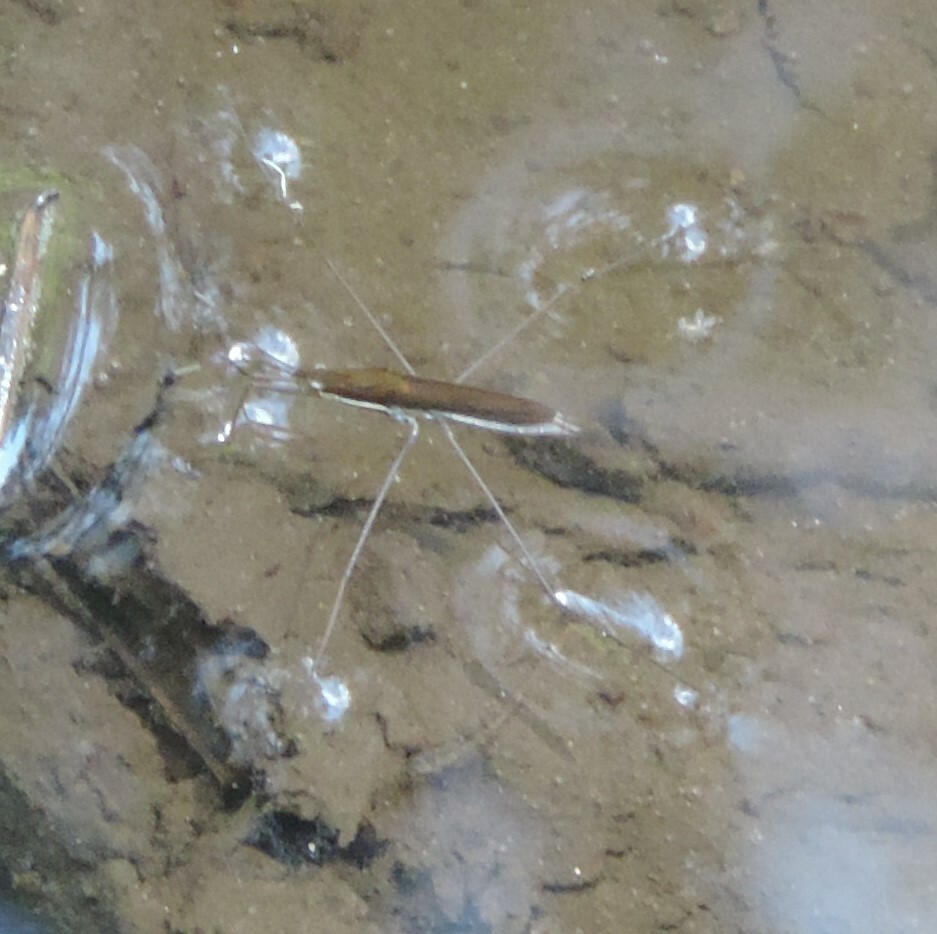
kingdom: Animalia
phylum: Arthropoda
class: Insecta
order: Hemiptera
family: Gerridae
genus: Limnoporus
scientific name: Limnoporus notabilis
